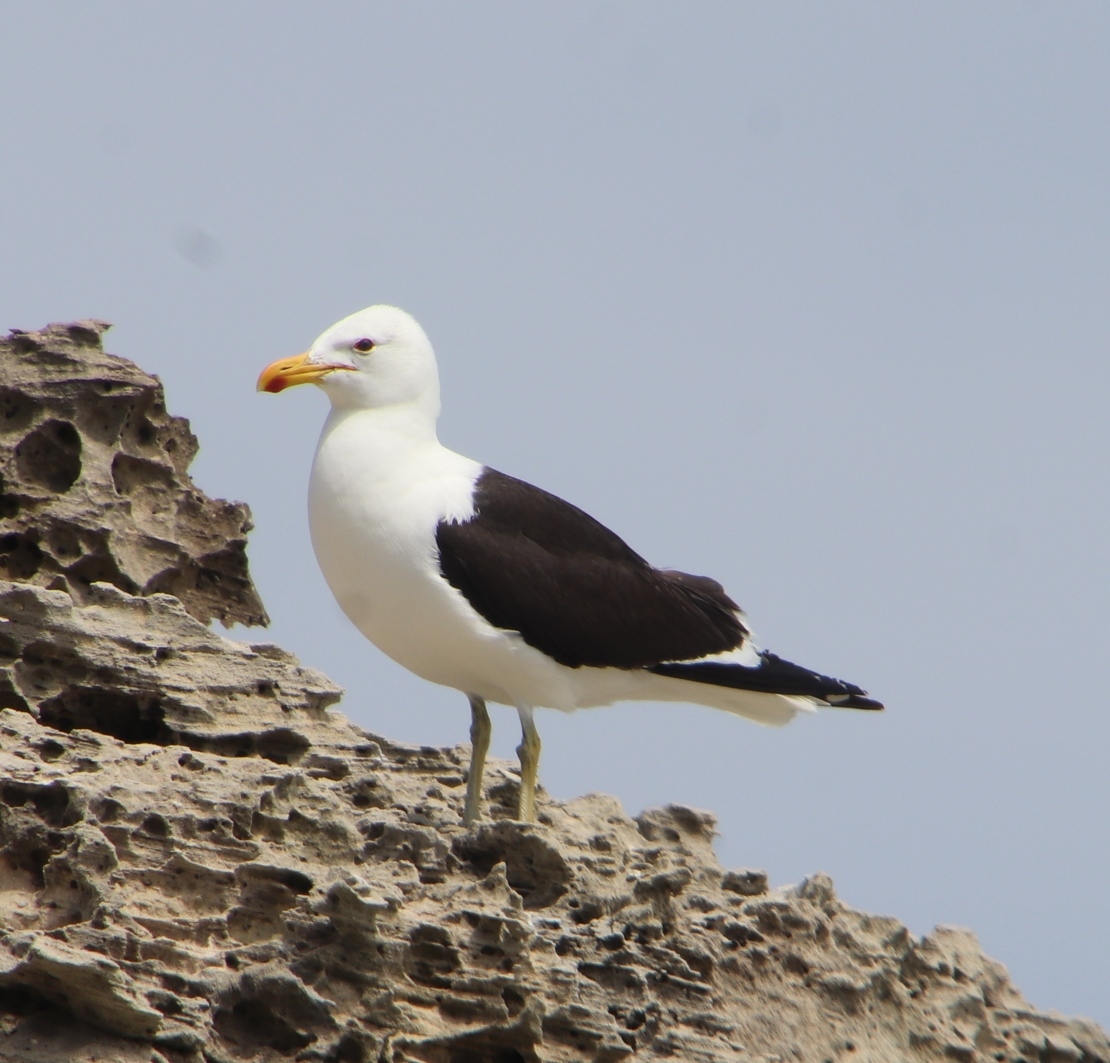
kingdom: Animalia
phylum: Chordata
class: Aves
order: Charadriiformes
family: Laridae
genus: Larus
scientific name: Larus dominicanus
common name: Kelp gull
